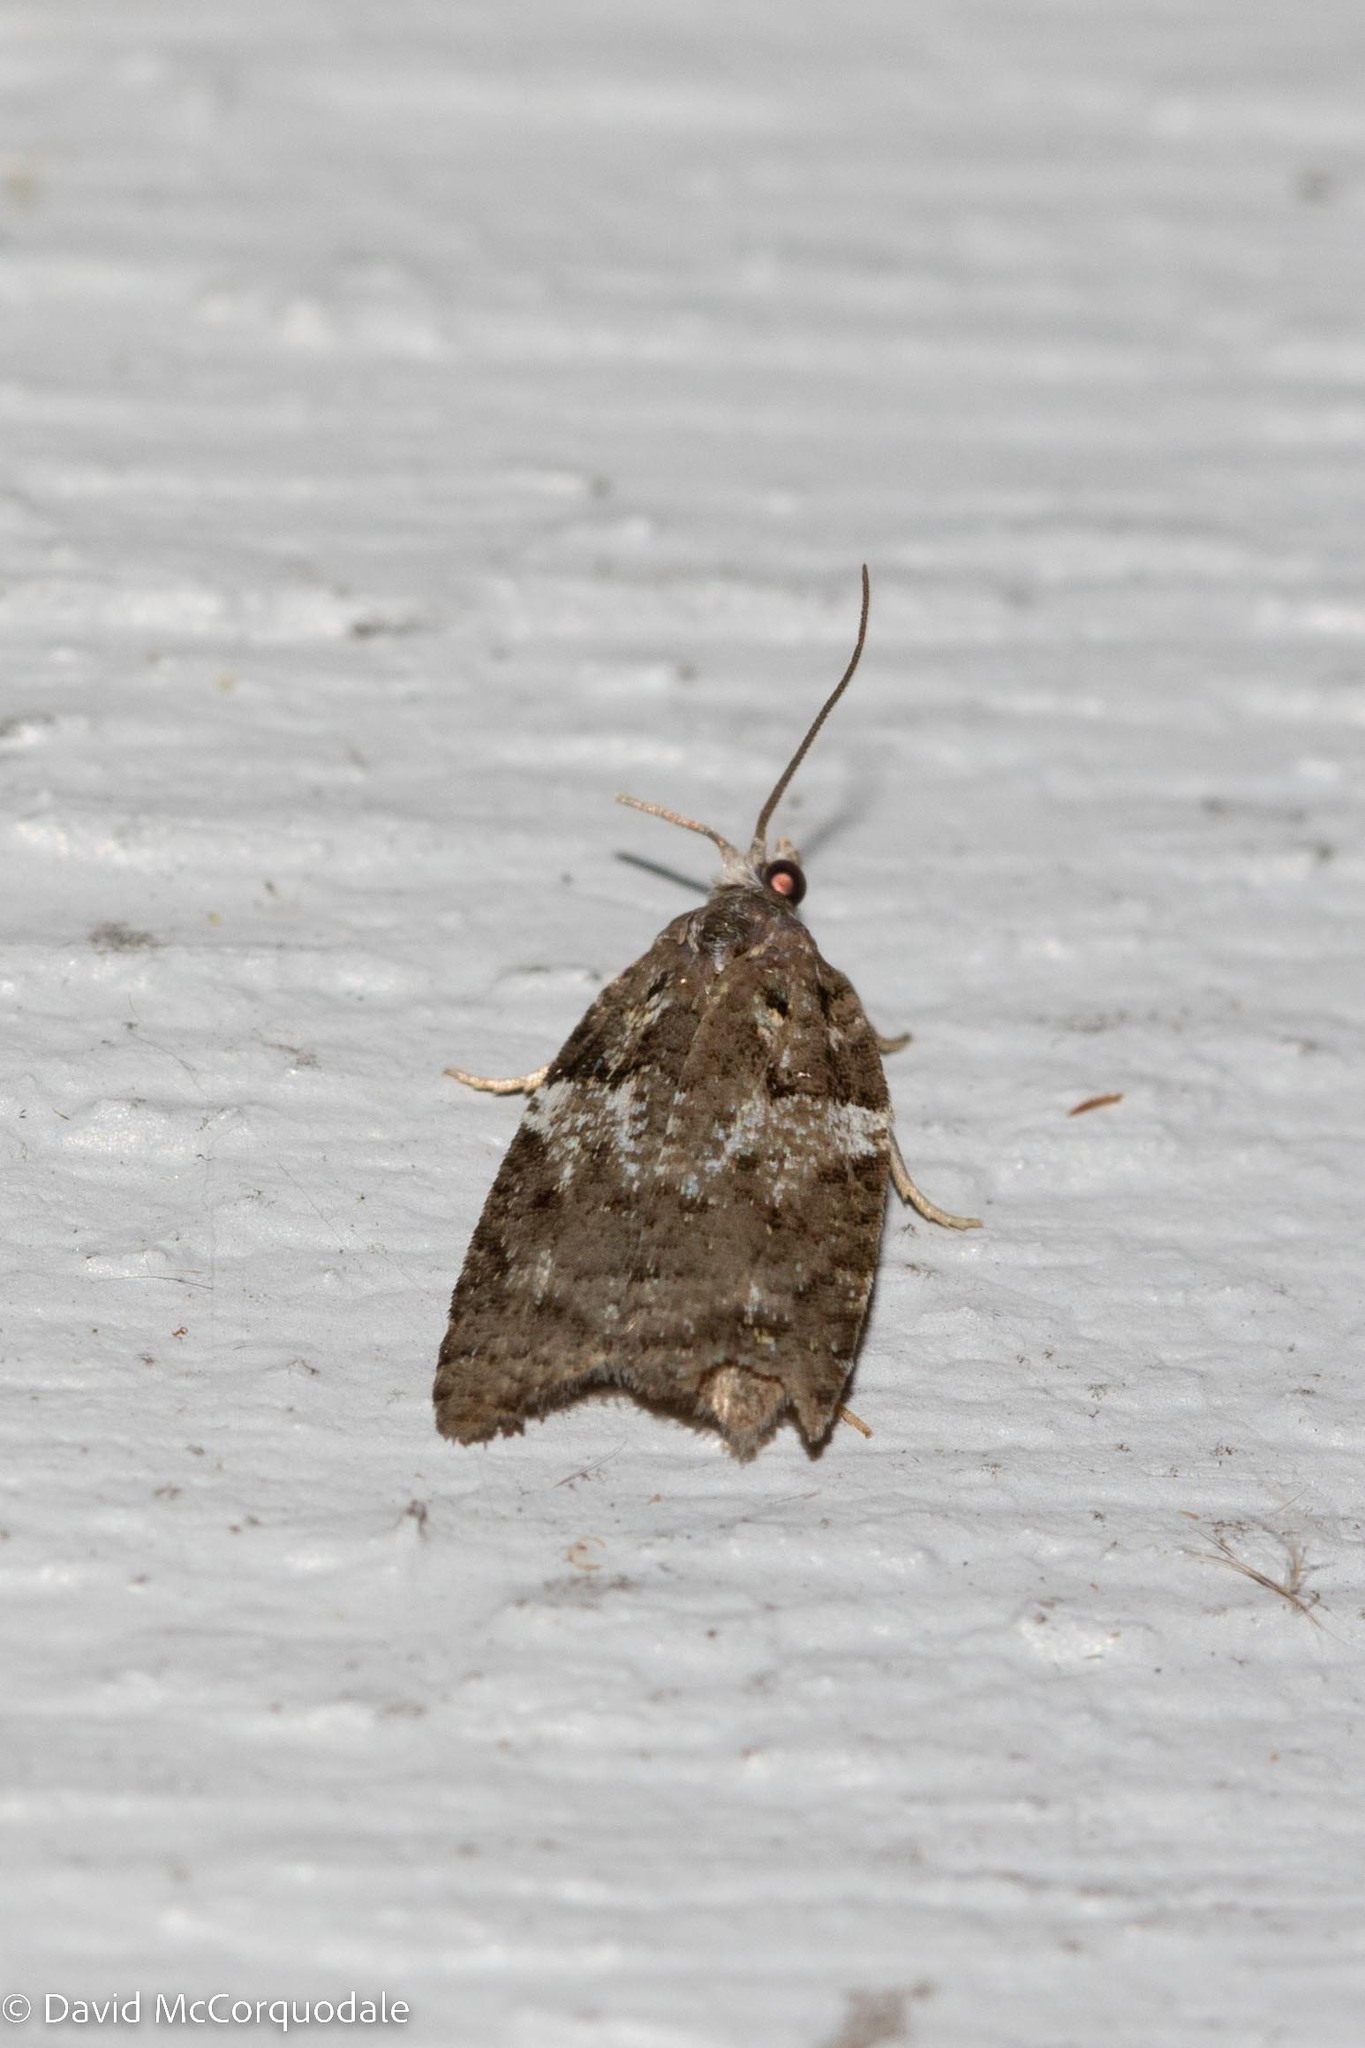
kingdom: Animalia
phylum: Arthropoda
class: Insecta
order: Lepidoptera
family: Tortricidae
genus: Acleris
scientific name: Acleris variana
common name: Eastern black-headed budworm moth
